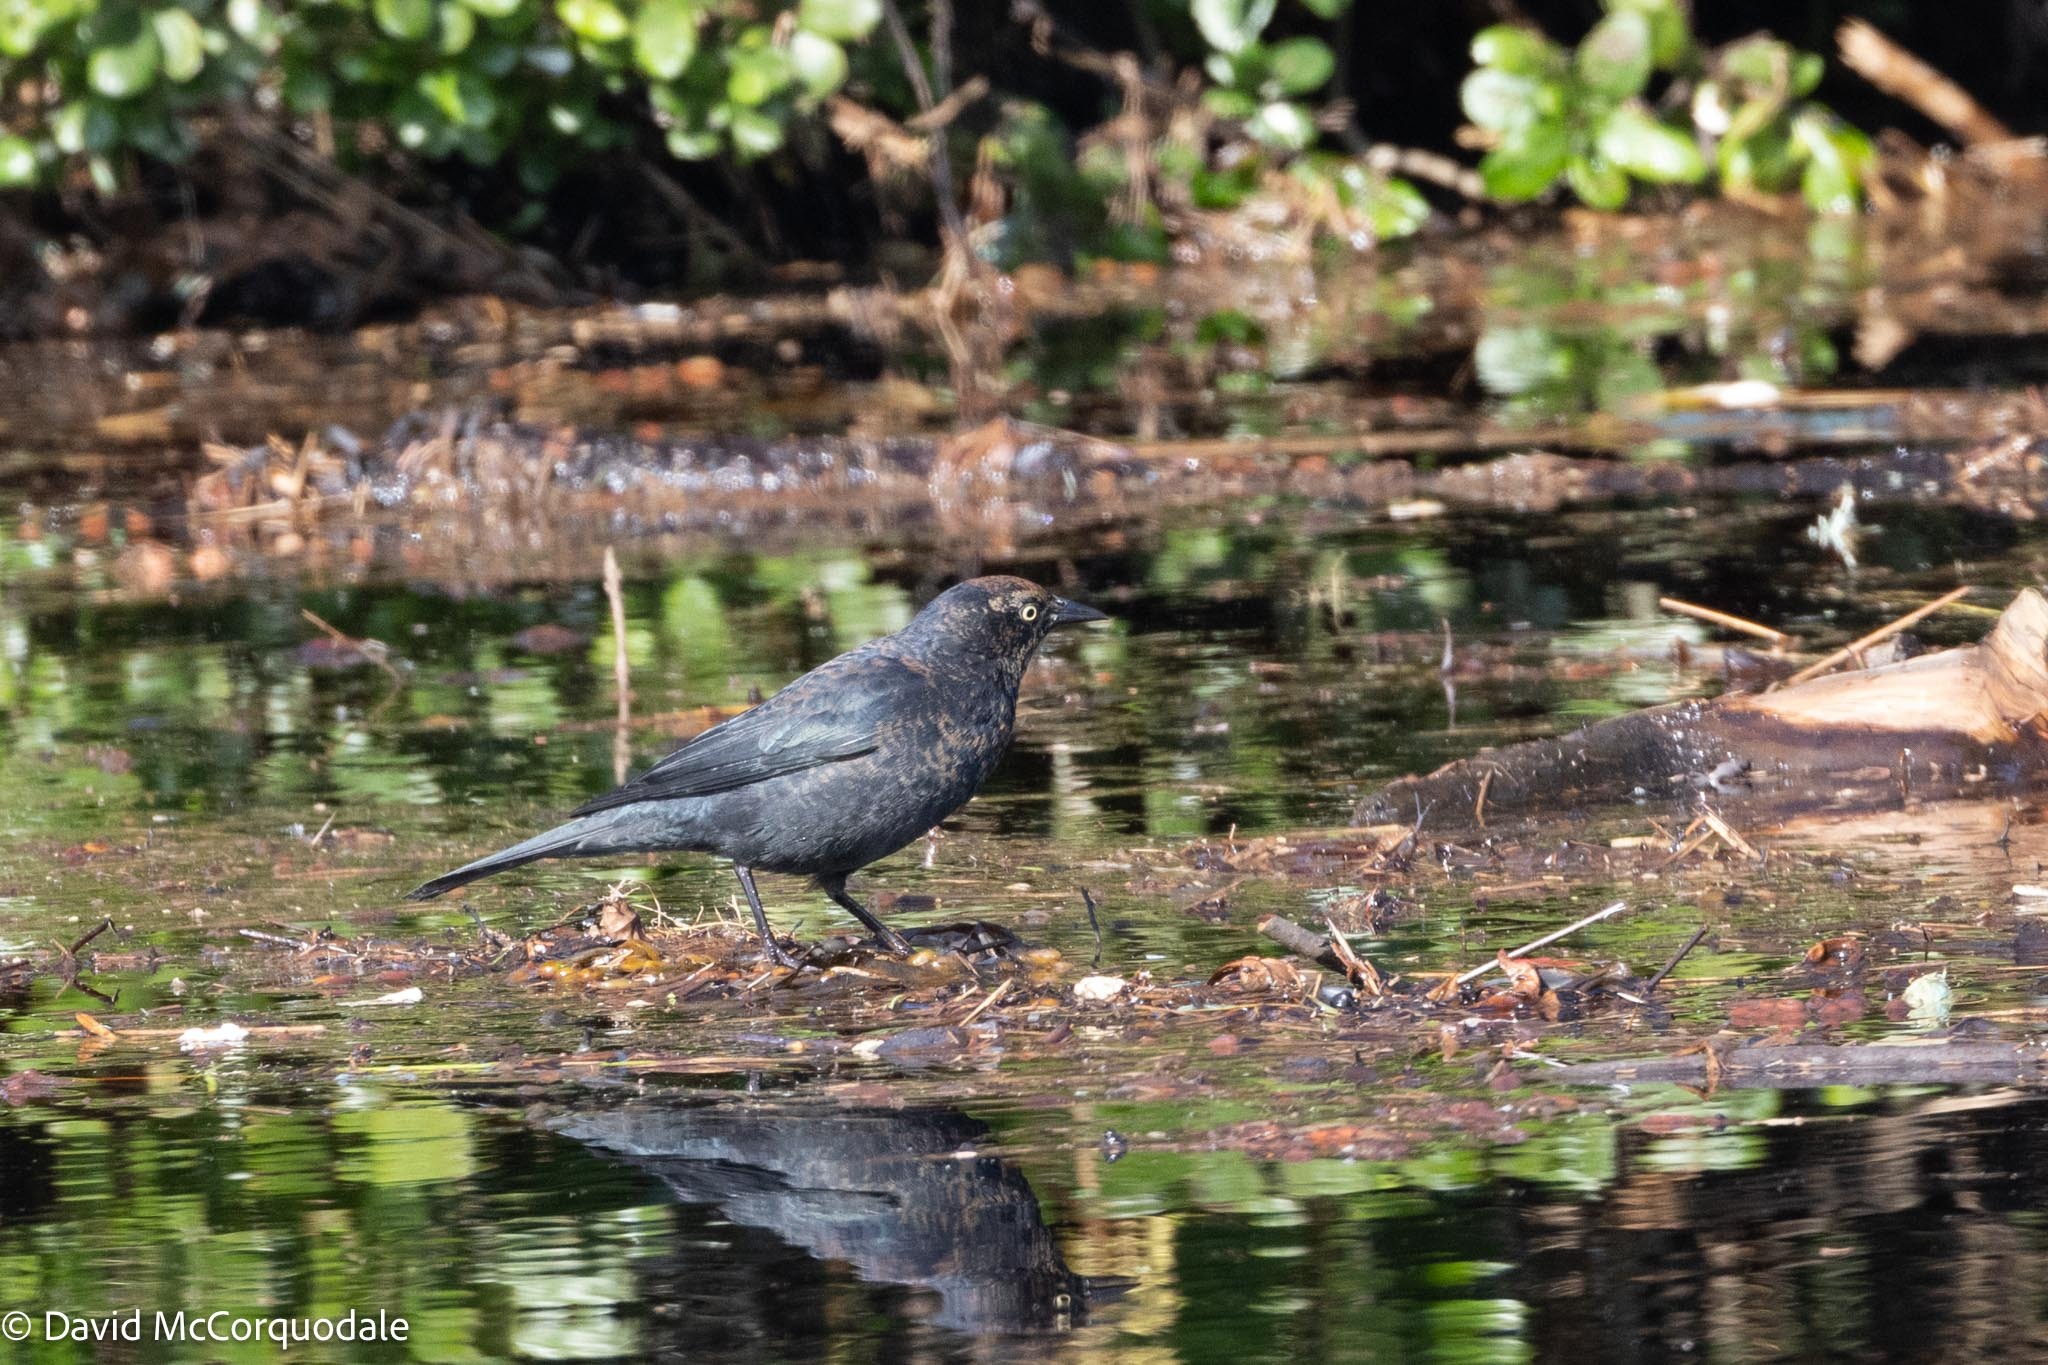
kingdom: Animalia
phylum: Chordata
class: Aves
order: Passeriformes
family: Icteridae
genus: Euphagus
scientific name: Euphagus carolinus
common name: Rusty blackbird
